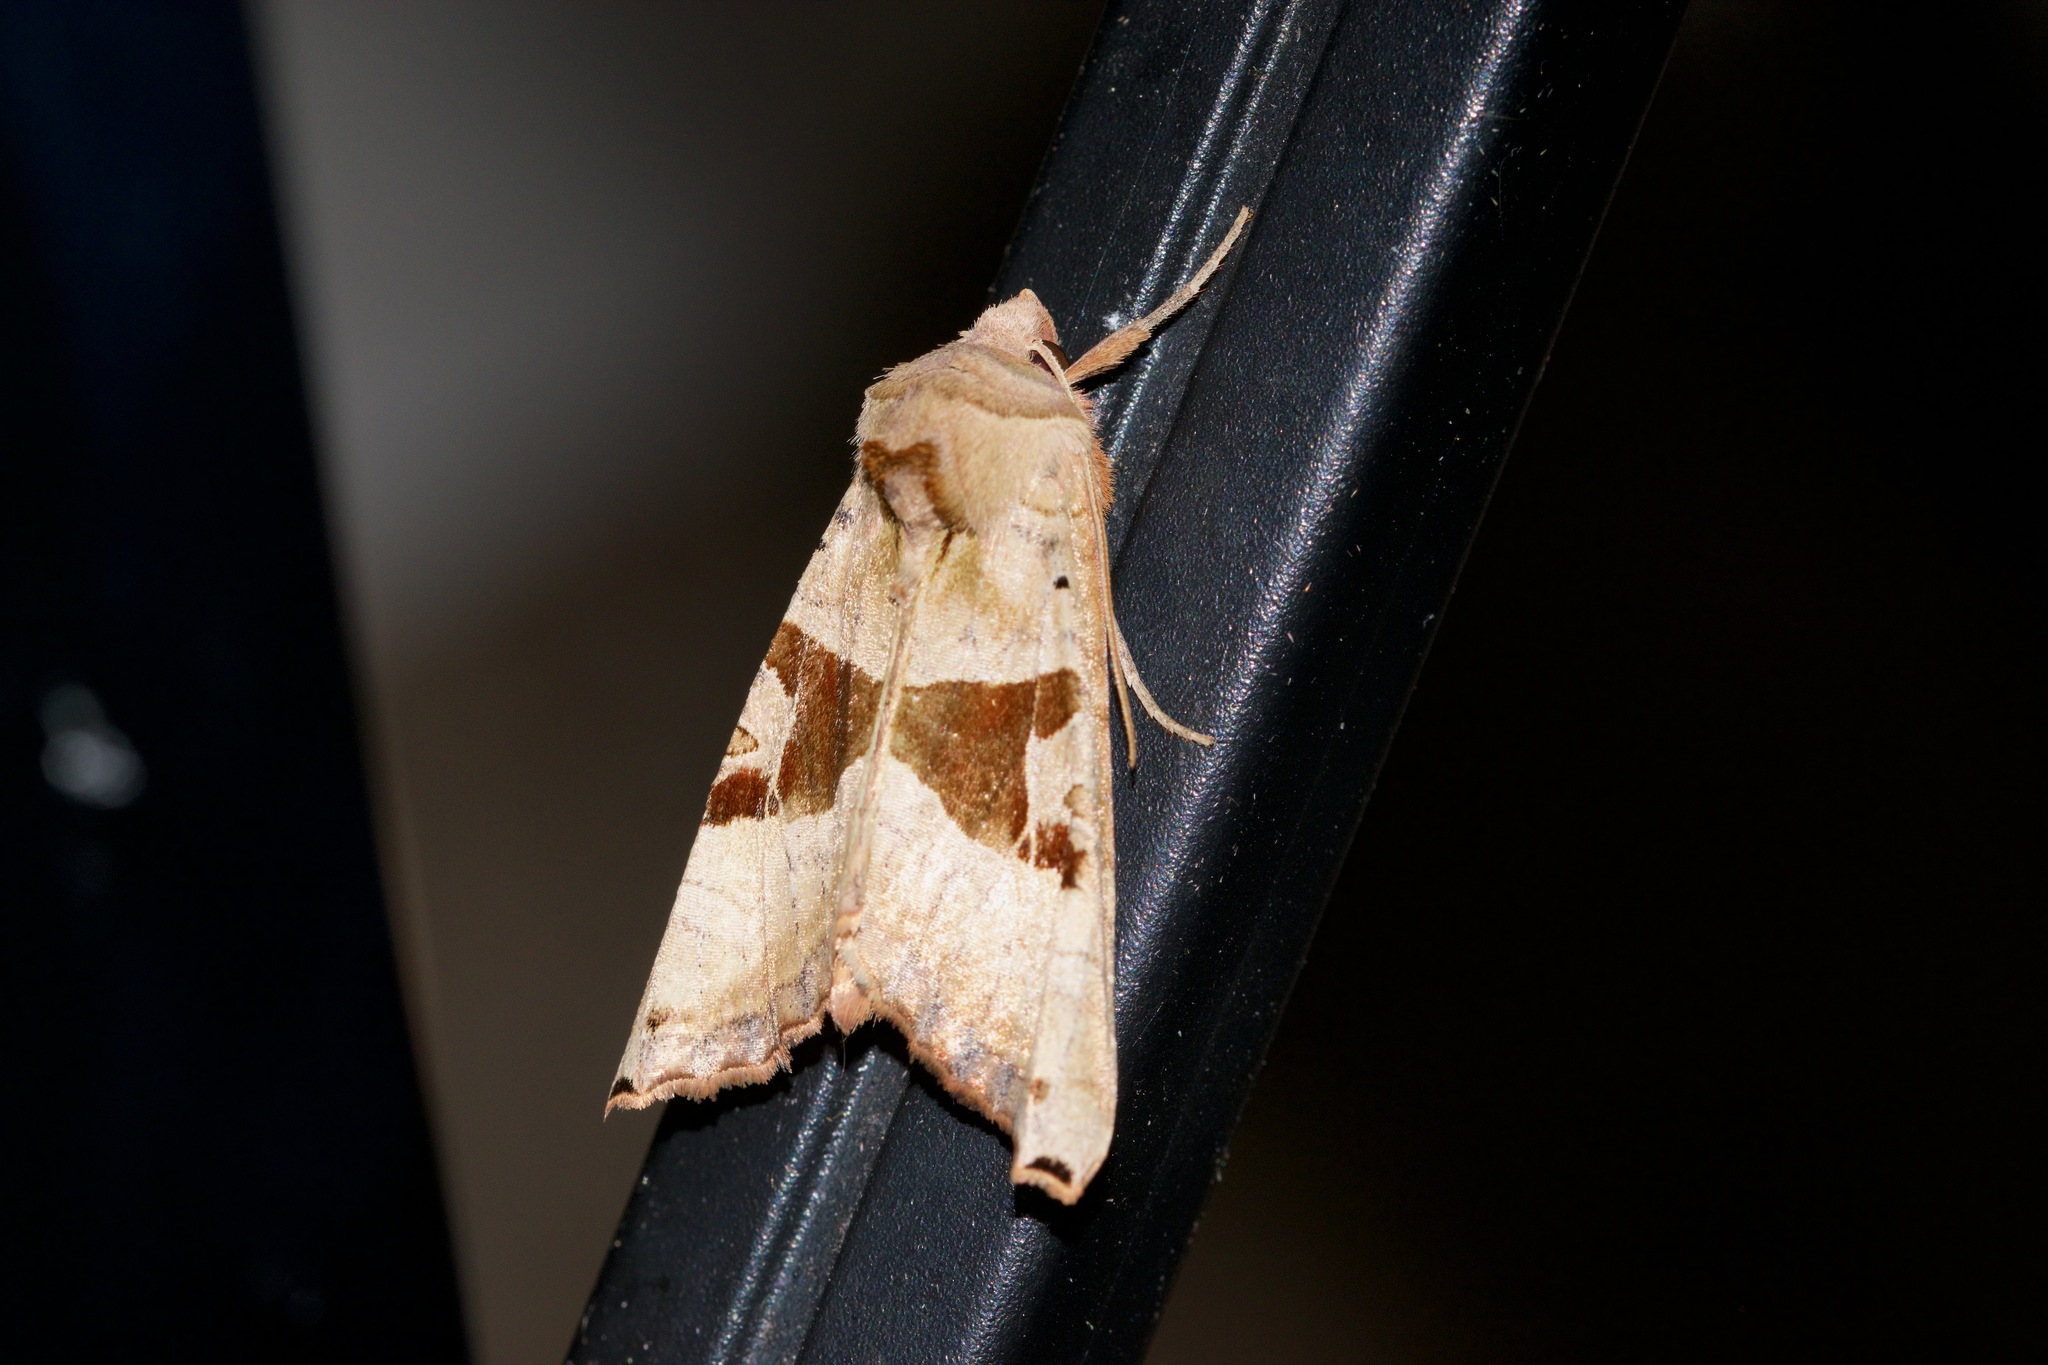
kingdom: Animalia
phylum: Arthropoda
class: Insecta
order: Lepidoptera
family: Noctuidae
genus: Phlogophora
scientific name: Phlogophora periculosa
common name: Brown angle shades
